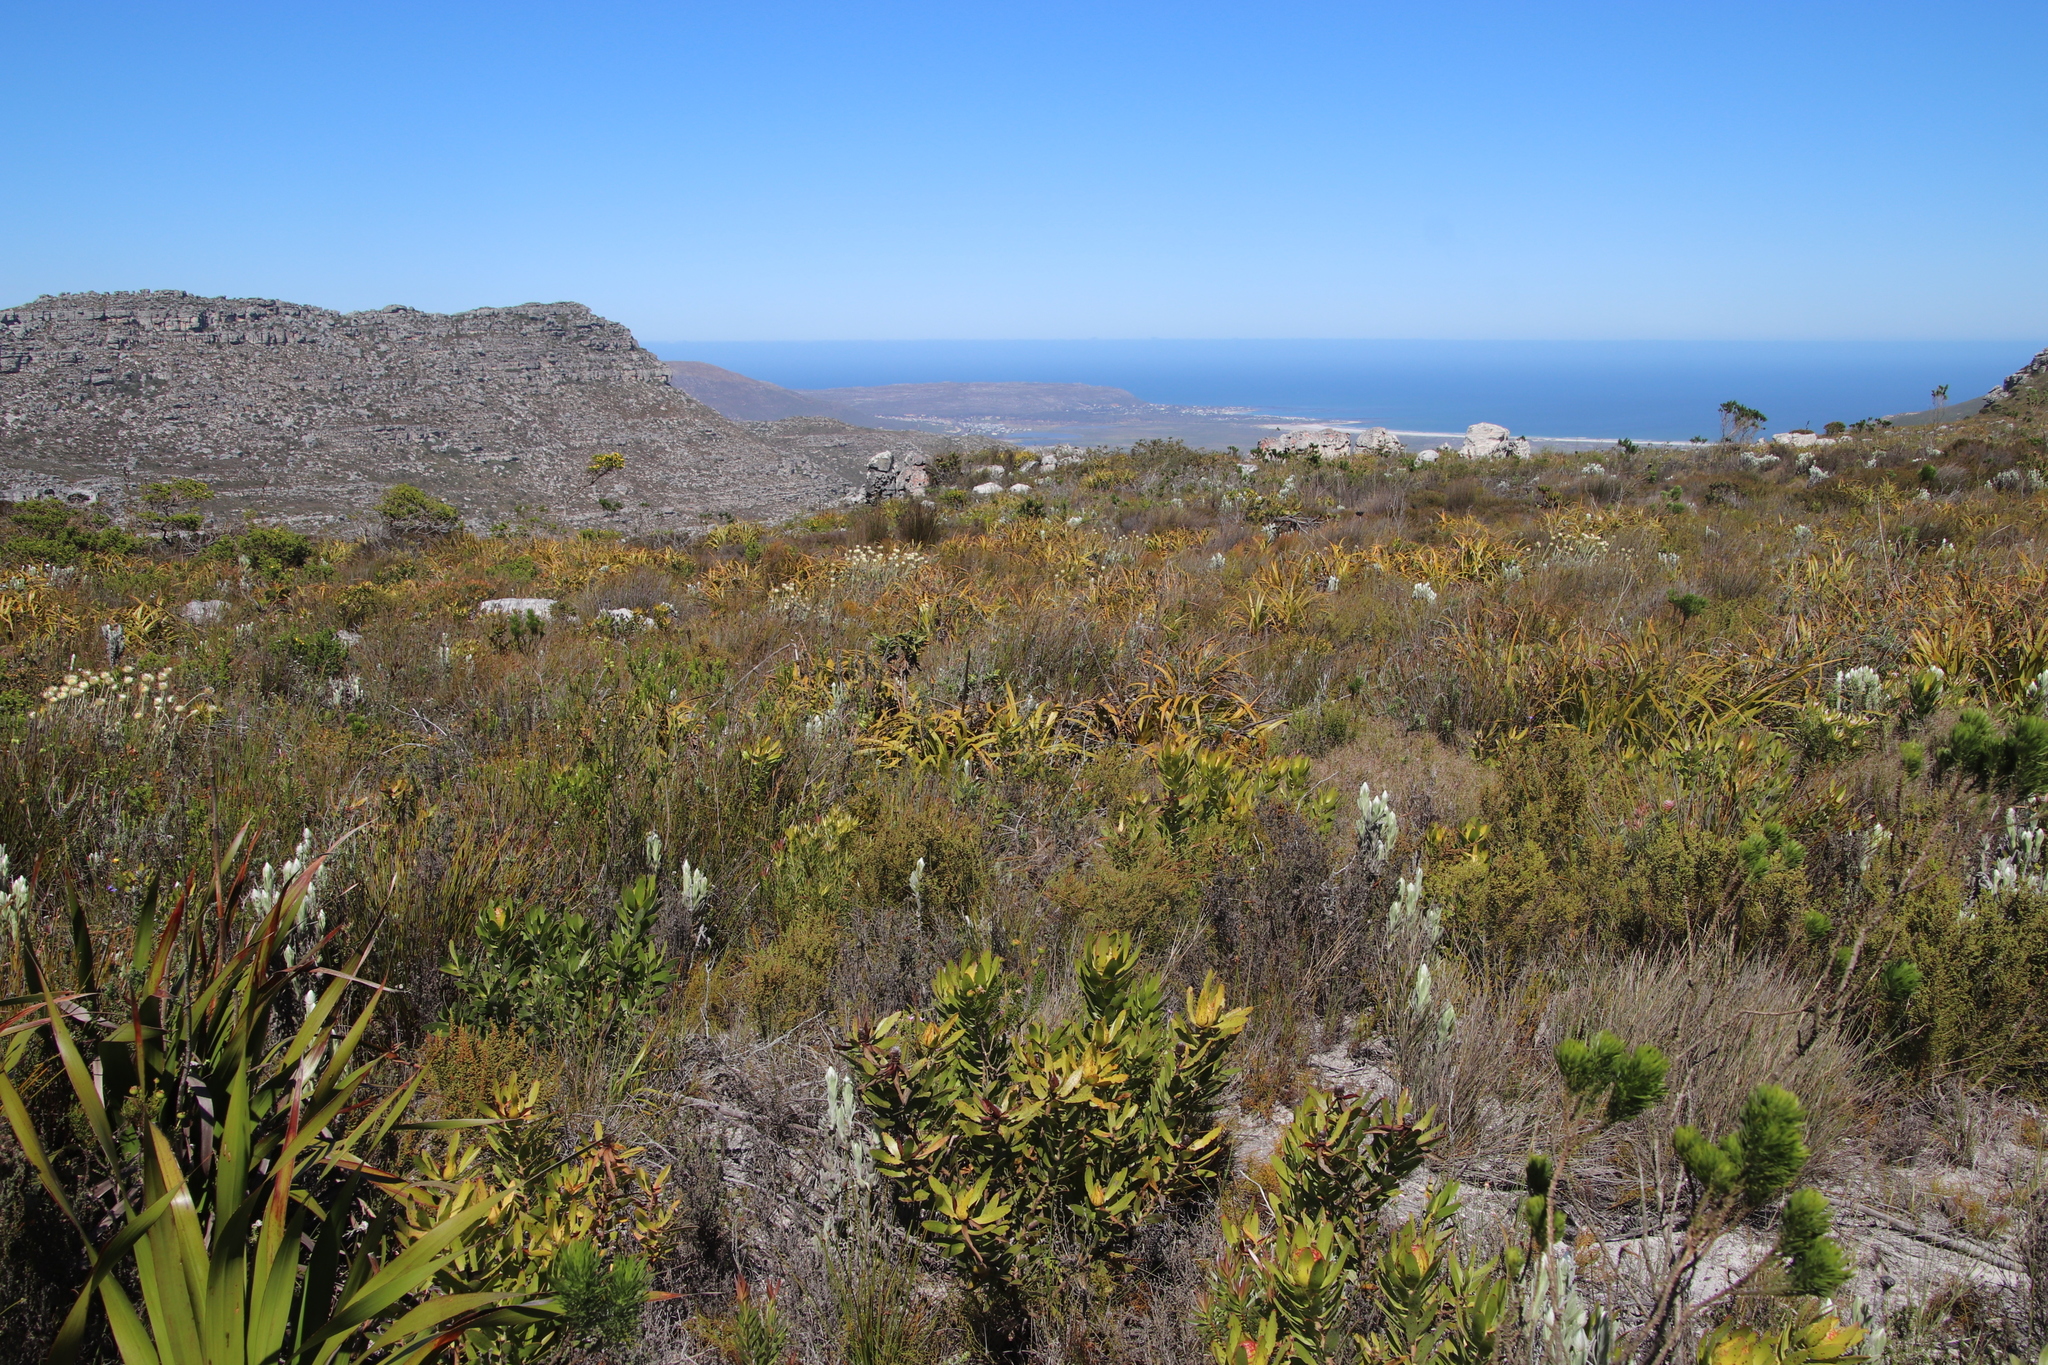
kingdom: Plantae
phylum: Tracheophyta
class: Liliopsida
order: Poales
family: Cyperaceae
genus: Tetraria
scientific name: Tetraria thermalis
